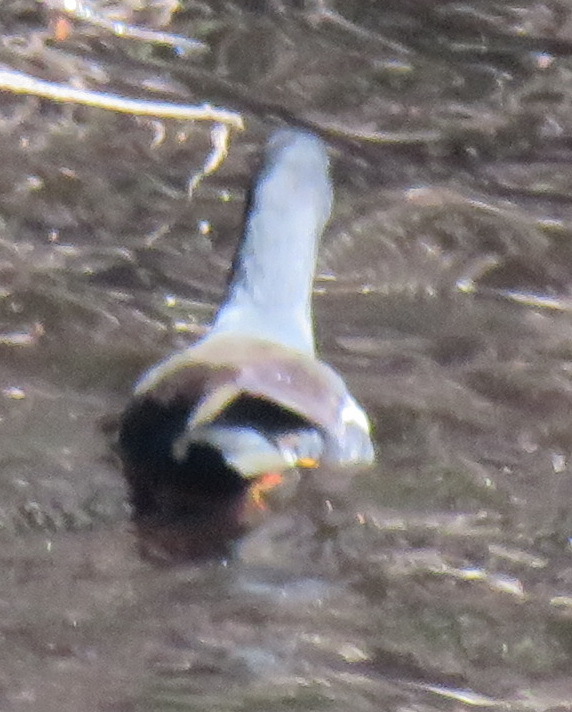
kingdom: Animalia
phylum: Chordata
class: Aves
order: Gruiformes
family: Rallidae
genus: Gallinula
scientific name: Gallinula chloropus
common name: Common moorhen
